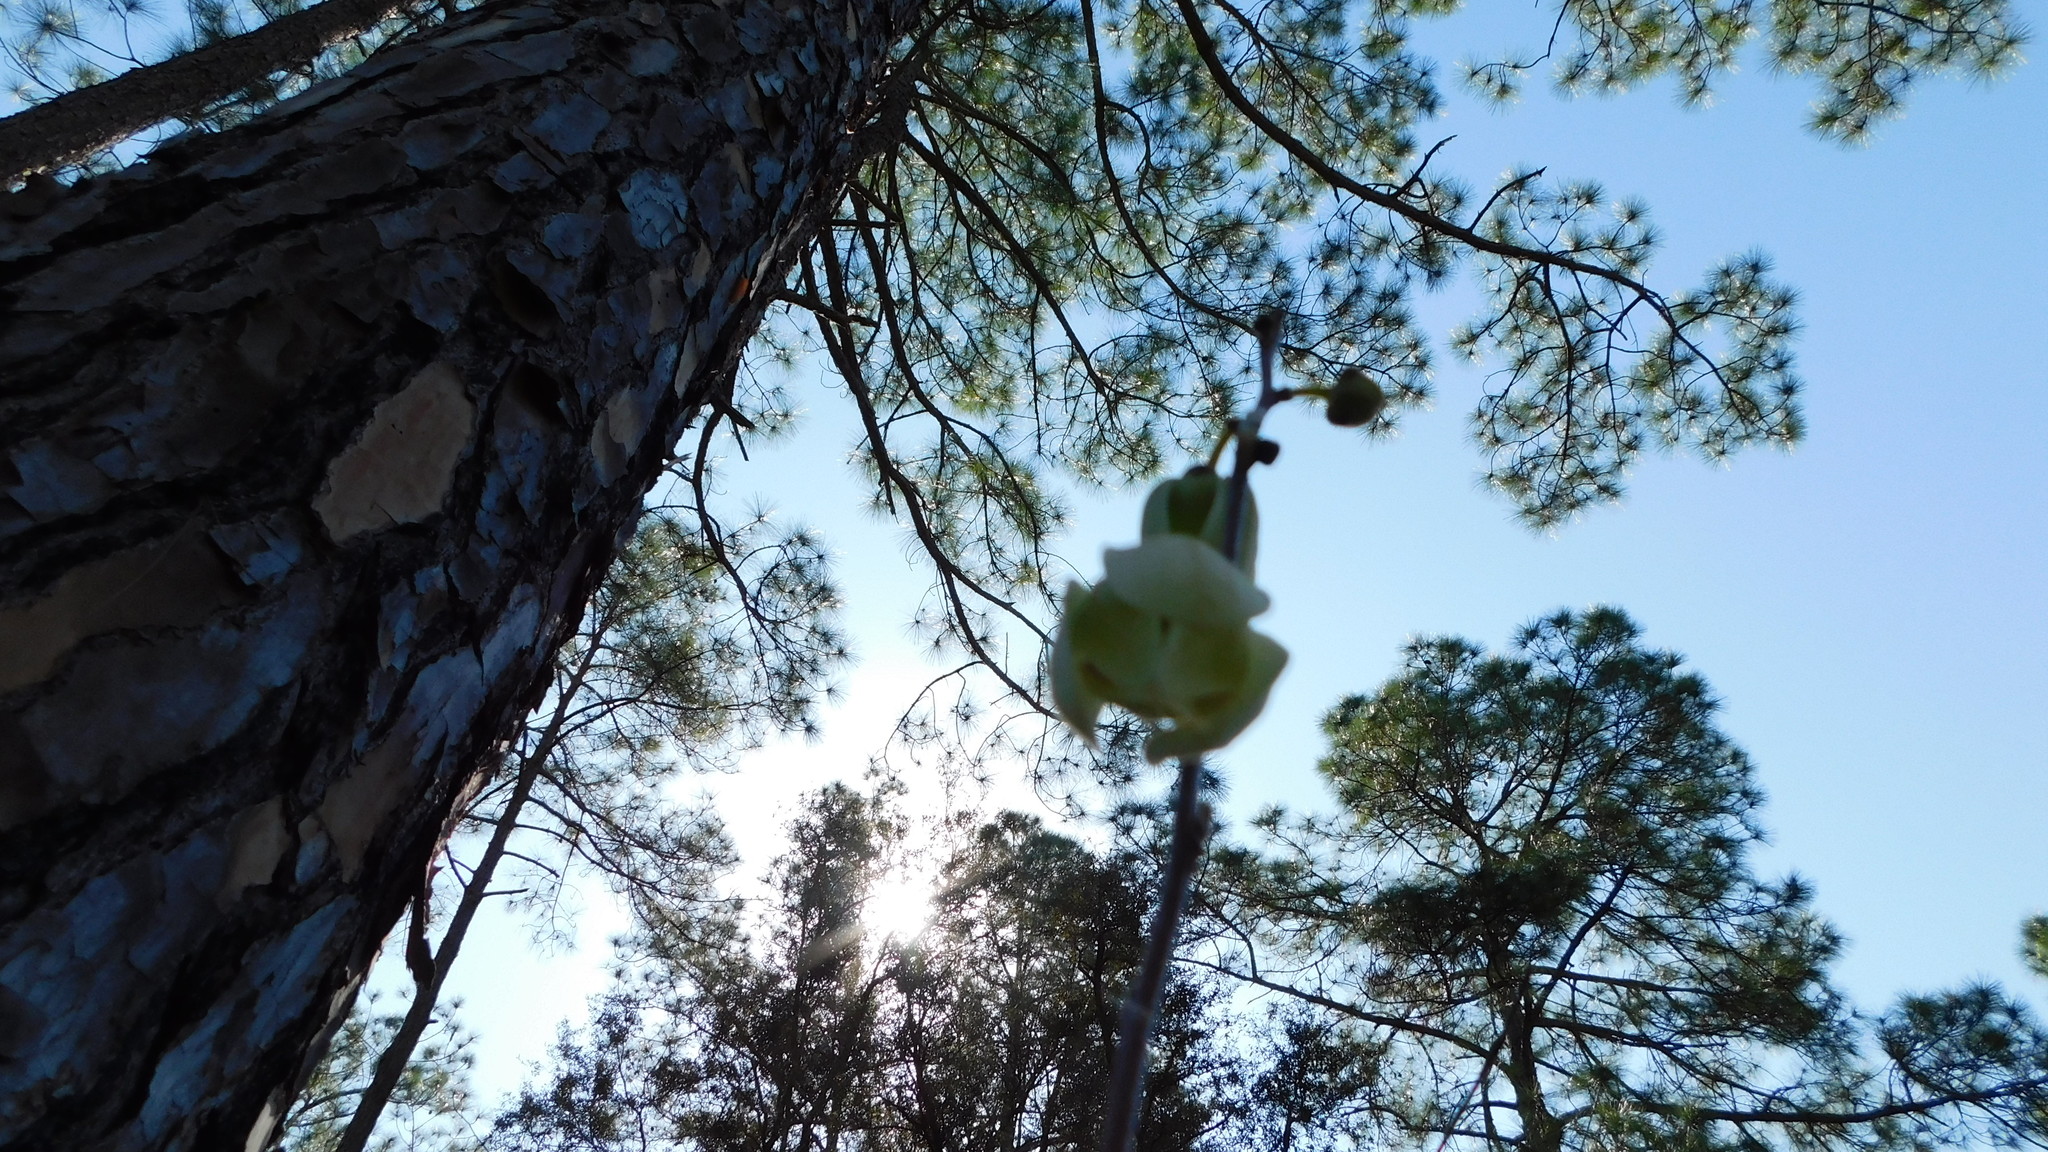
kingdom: Plantae
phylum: Tracheophyta
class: Magnoliopsida
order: Magnoliales
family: Annonaceae
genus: Asimina
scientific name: Asimina reticulata
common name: Flag pawpaw
